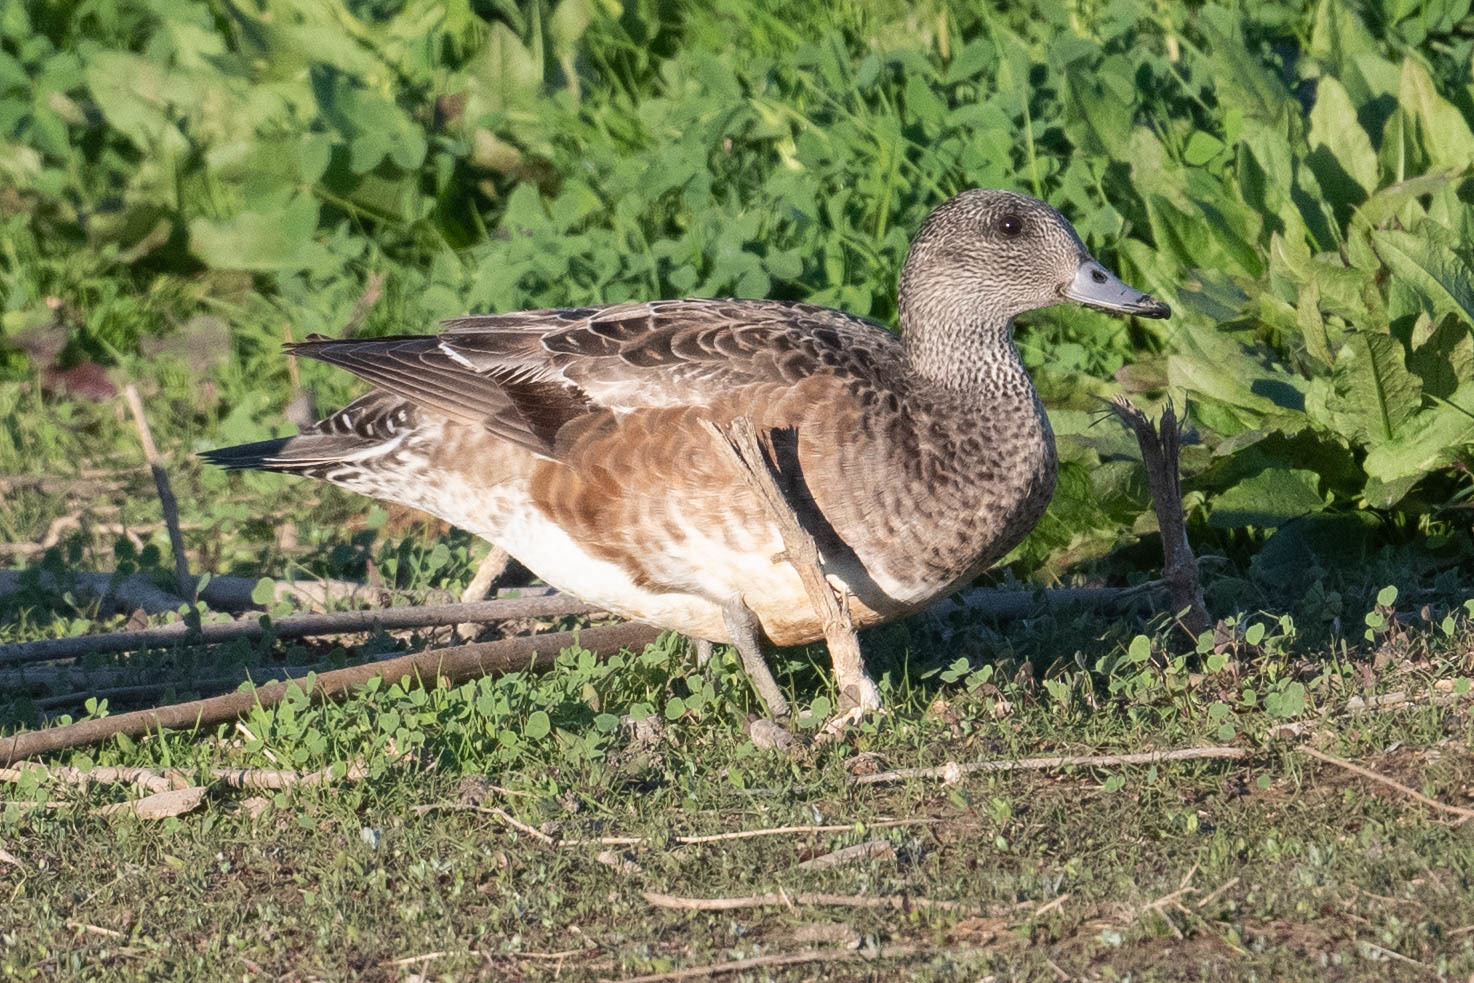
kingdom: Animalia
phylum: Chordata
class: Aves
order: Anseriformes
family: Anatidae
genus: Mareca
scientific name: Mareca americana
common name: American wigeon
